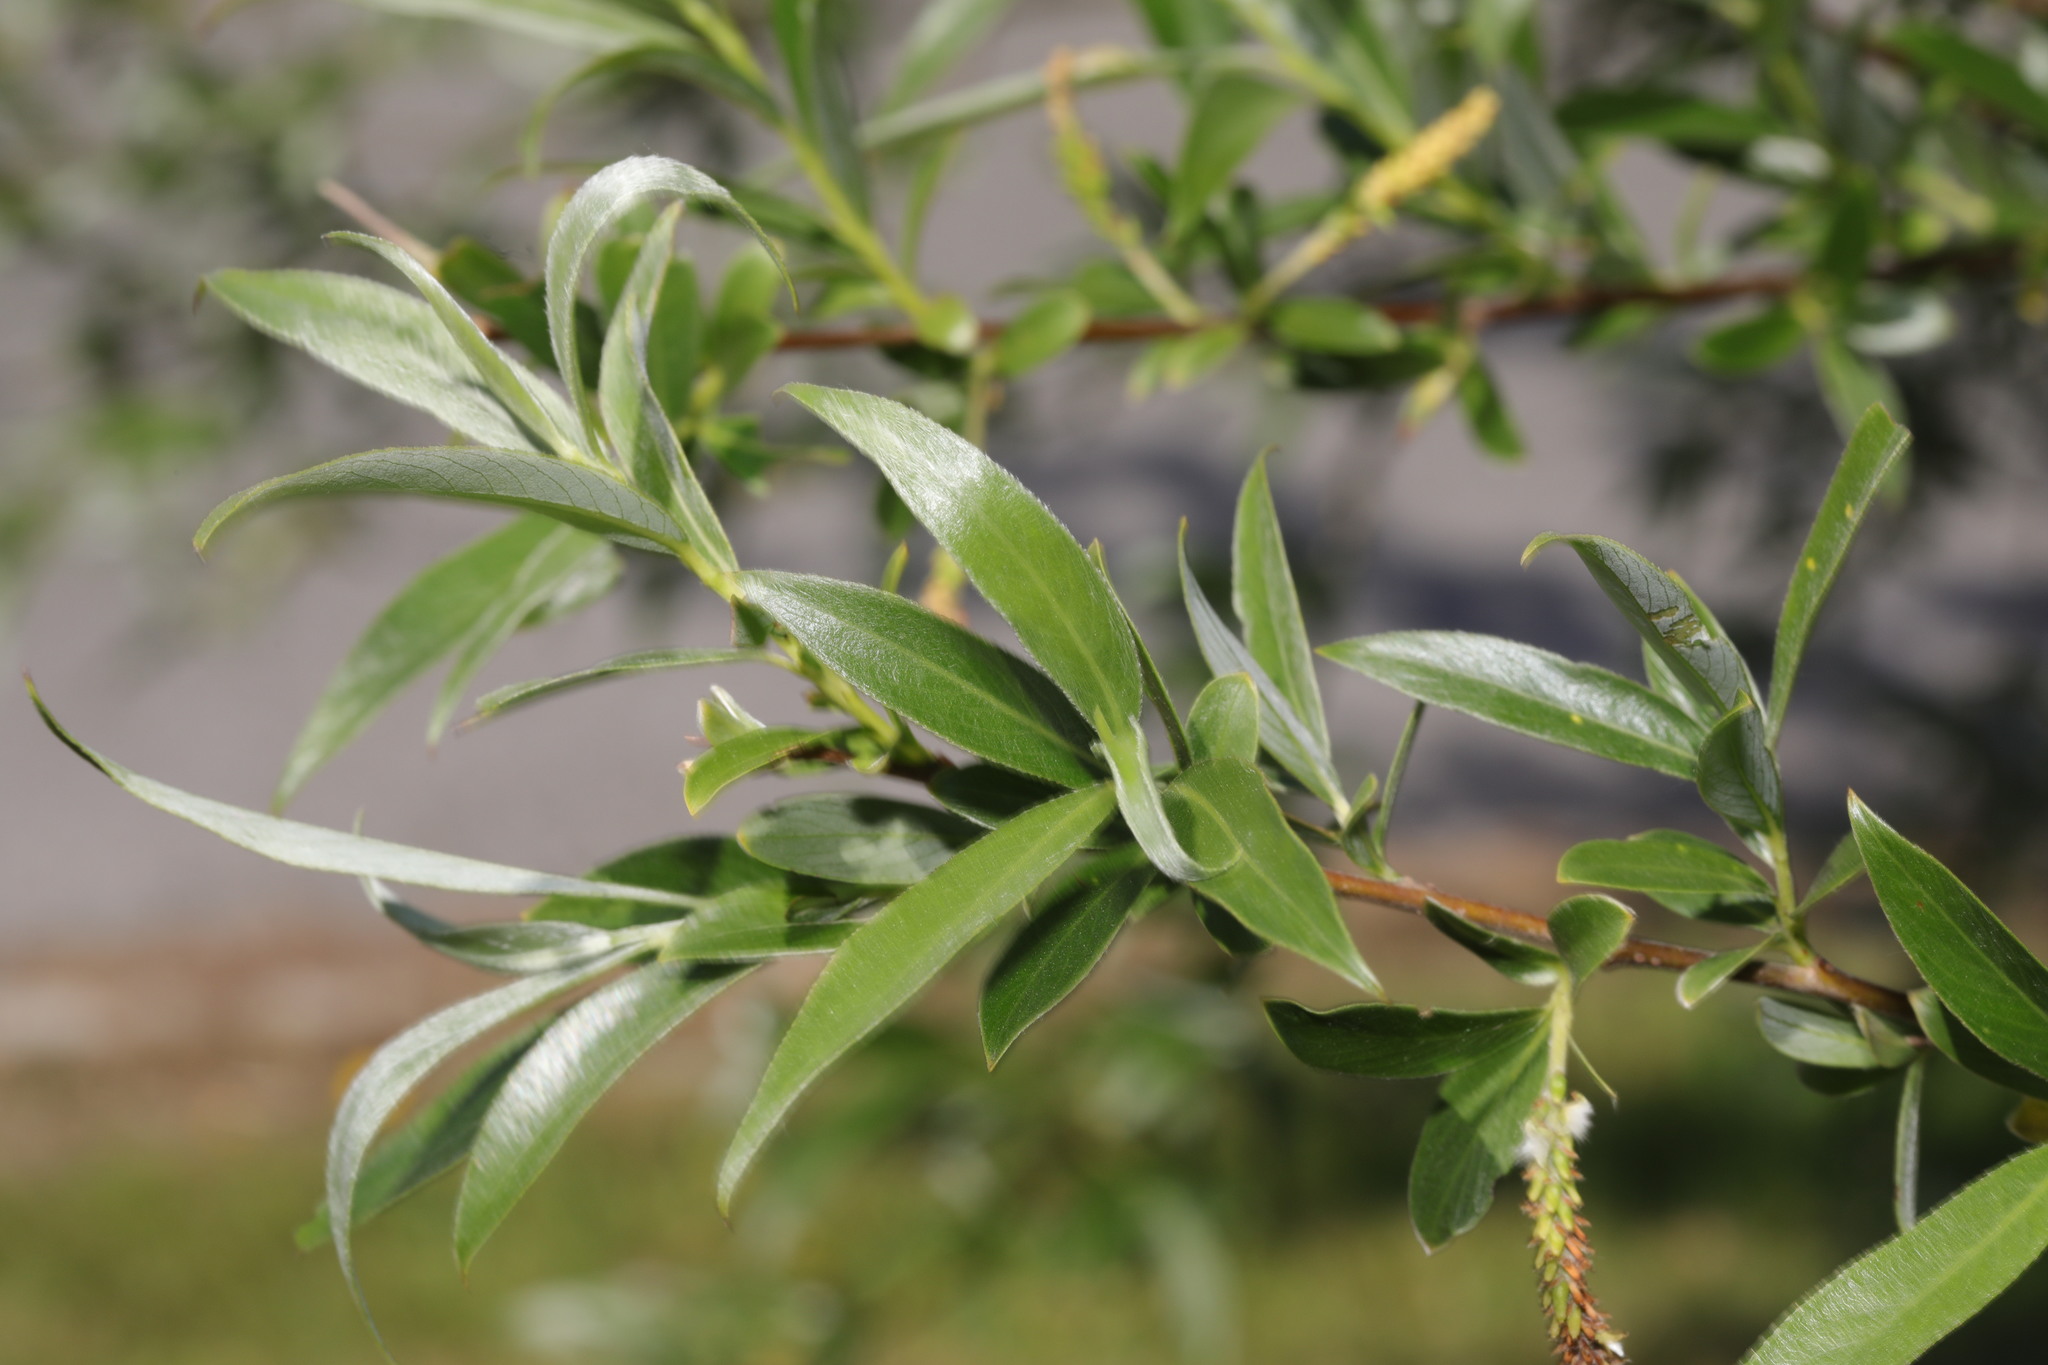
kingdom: Plantae
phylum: Tracheophyta
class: Magnoliopsida
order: Malpighiales
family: Salicaceae
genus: Salix
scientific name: Salix alba
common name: White willow
